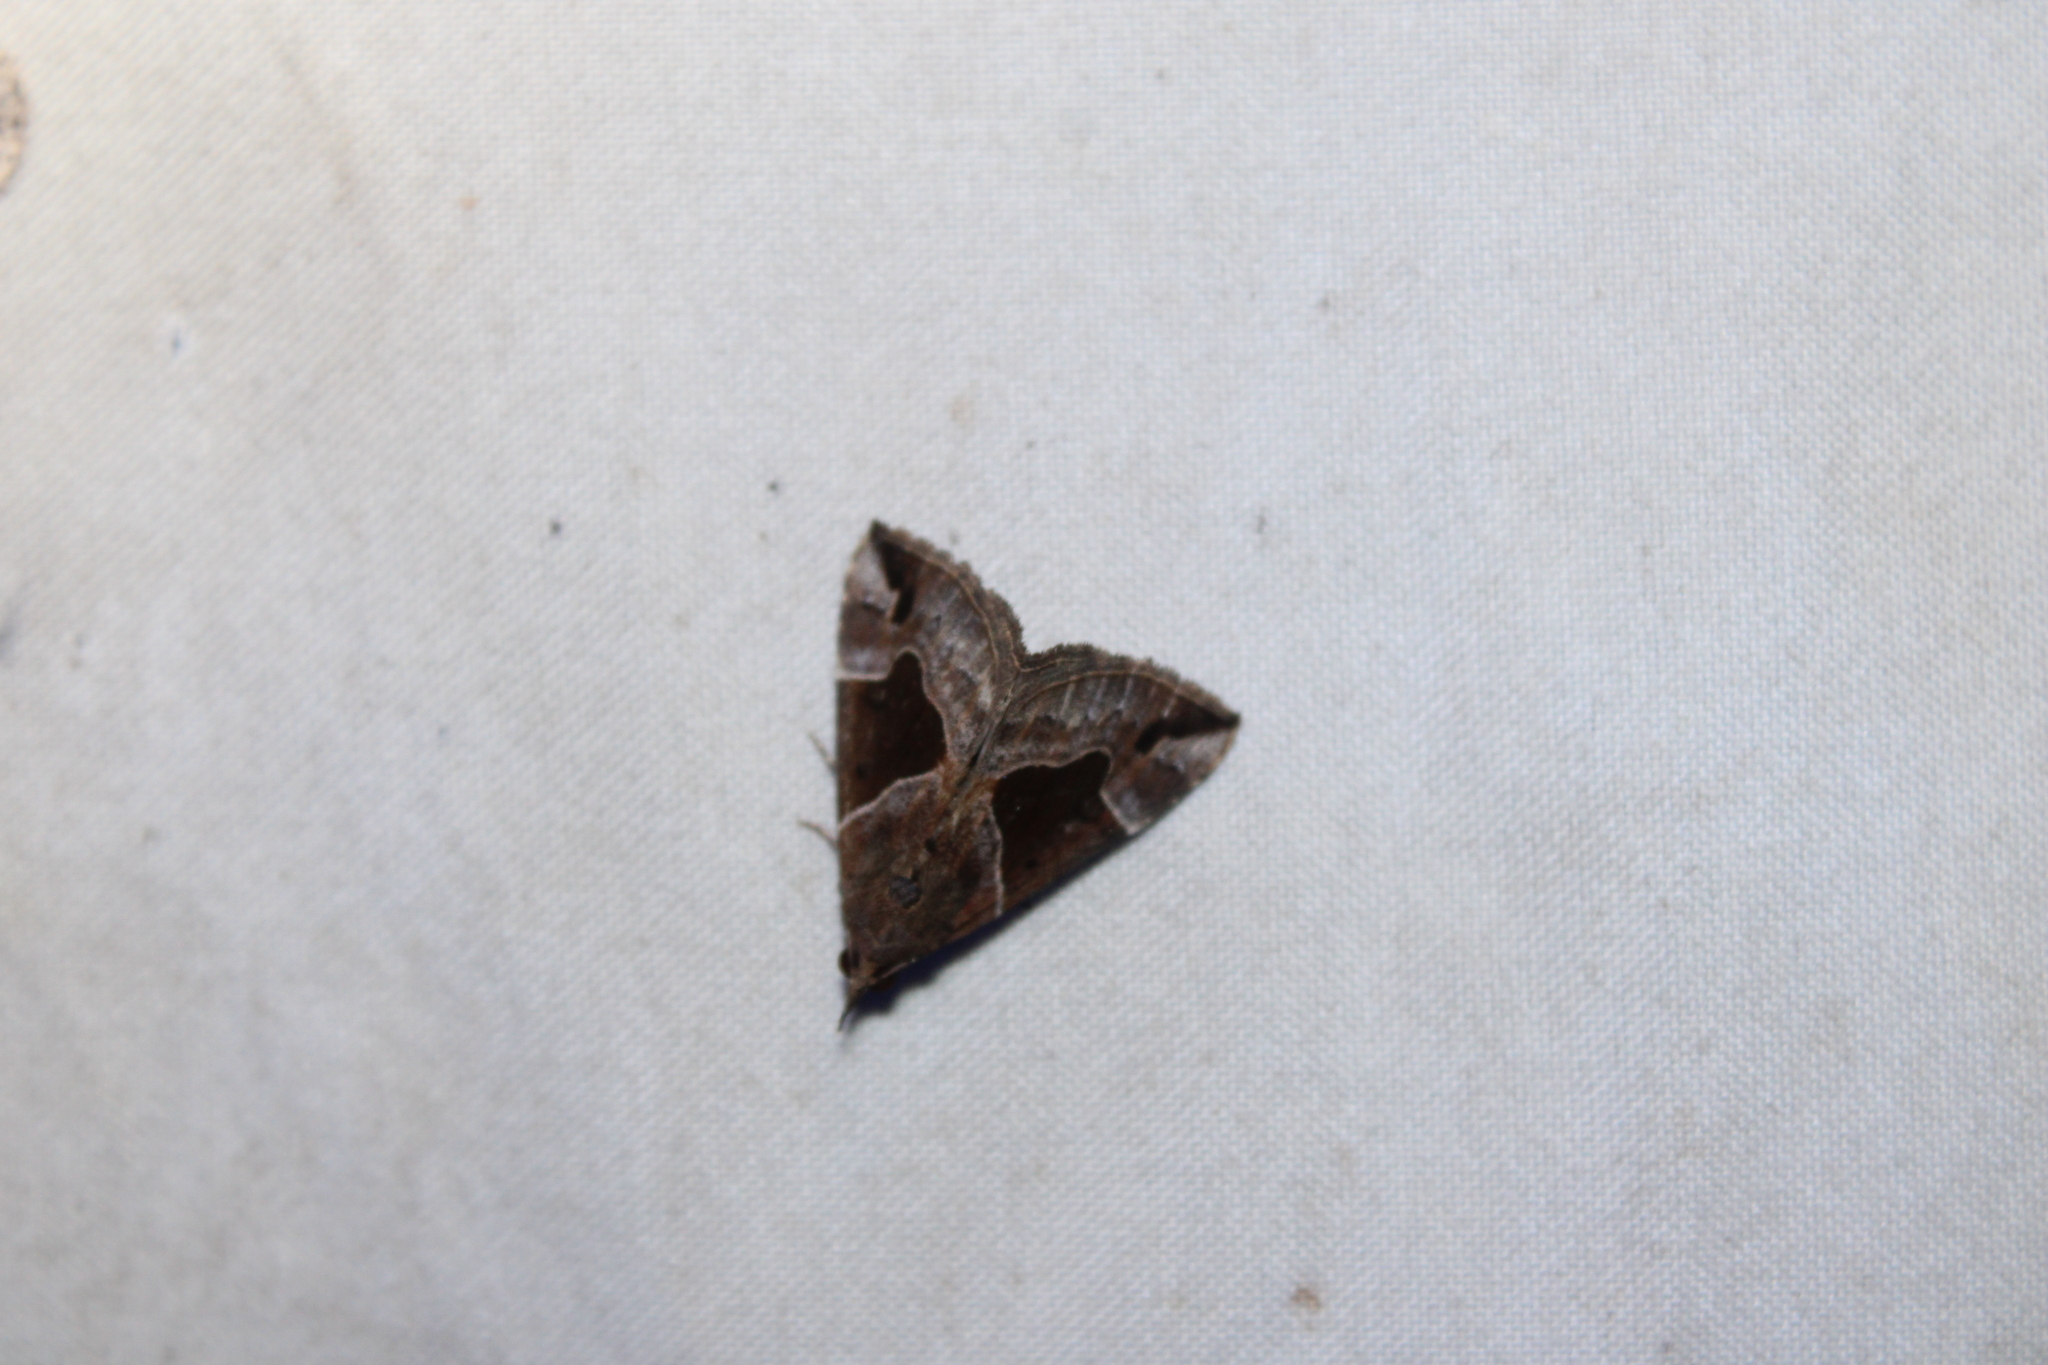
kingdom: Animalia
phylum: Arthropoda
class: Insecta
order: Lepidoptera
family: Erebidae
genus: Hypena
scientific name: Hypena manalis
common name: Flowing-line bomolocha moth
